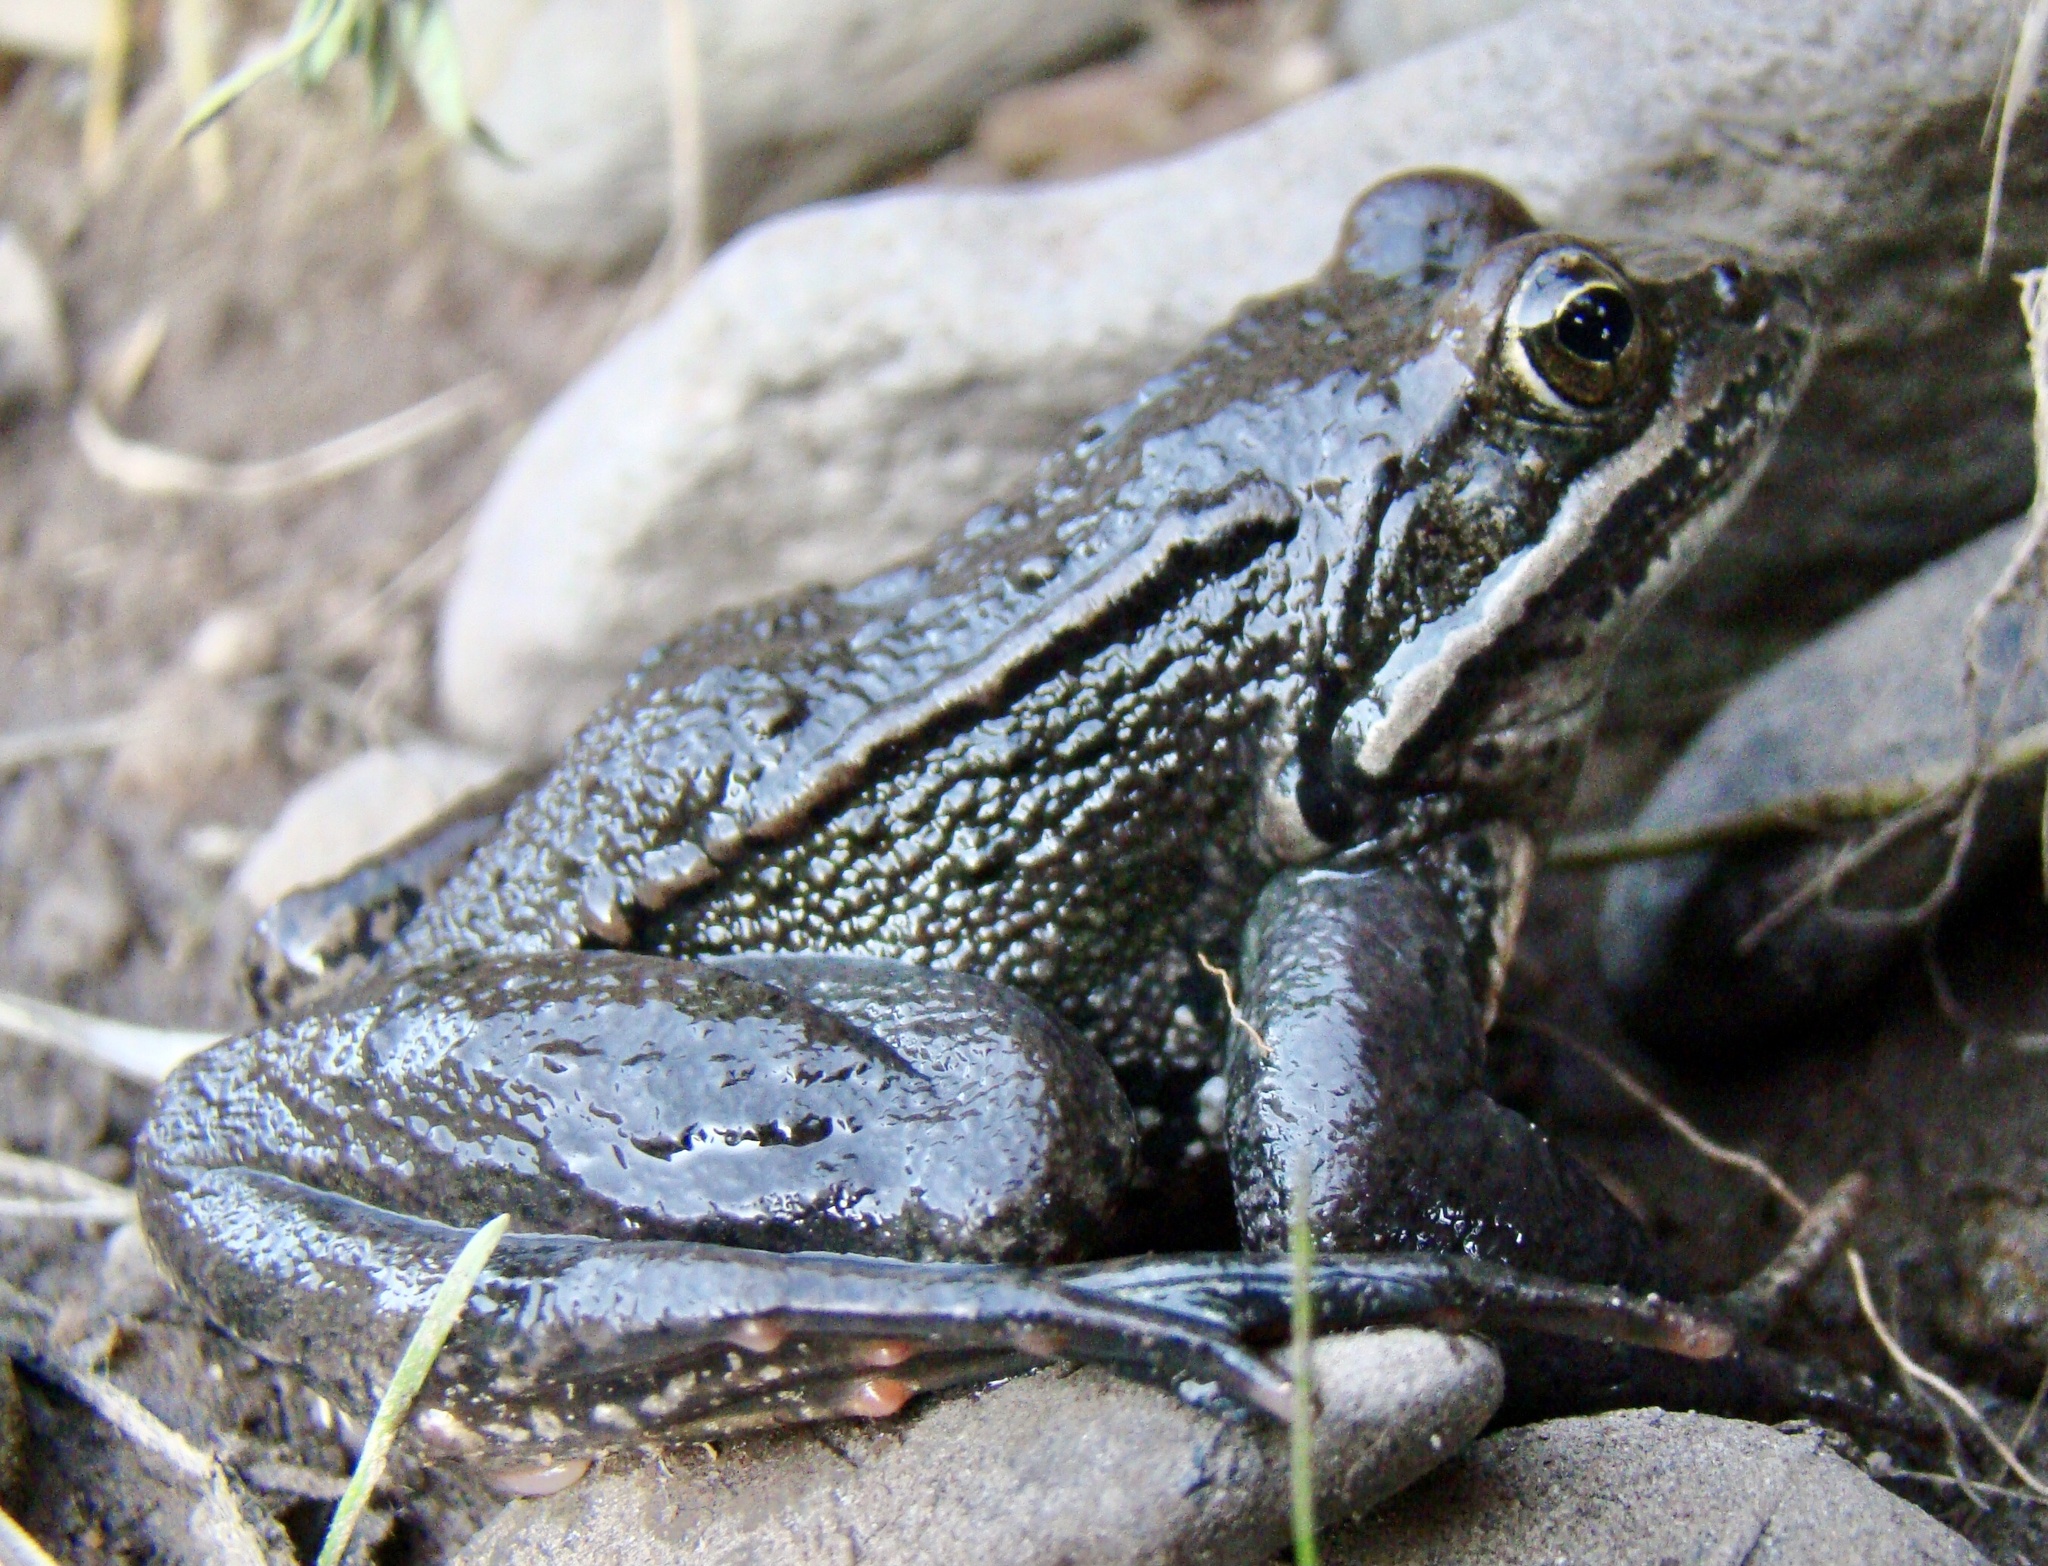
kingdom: Animalia
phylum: Chordata
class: Amphibia
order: Anura
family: Ranidae
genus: Rana
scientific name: Rana macrocnemis
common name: Banded frog
